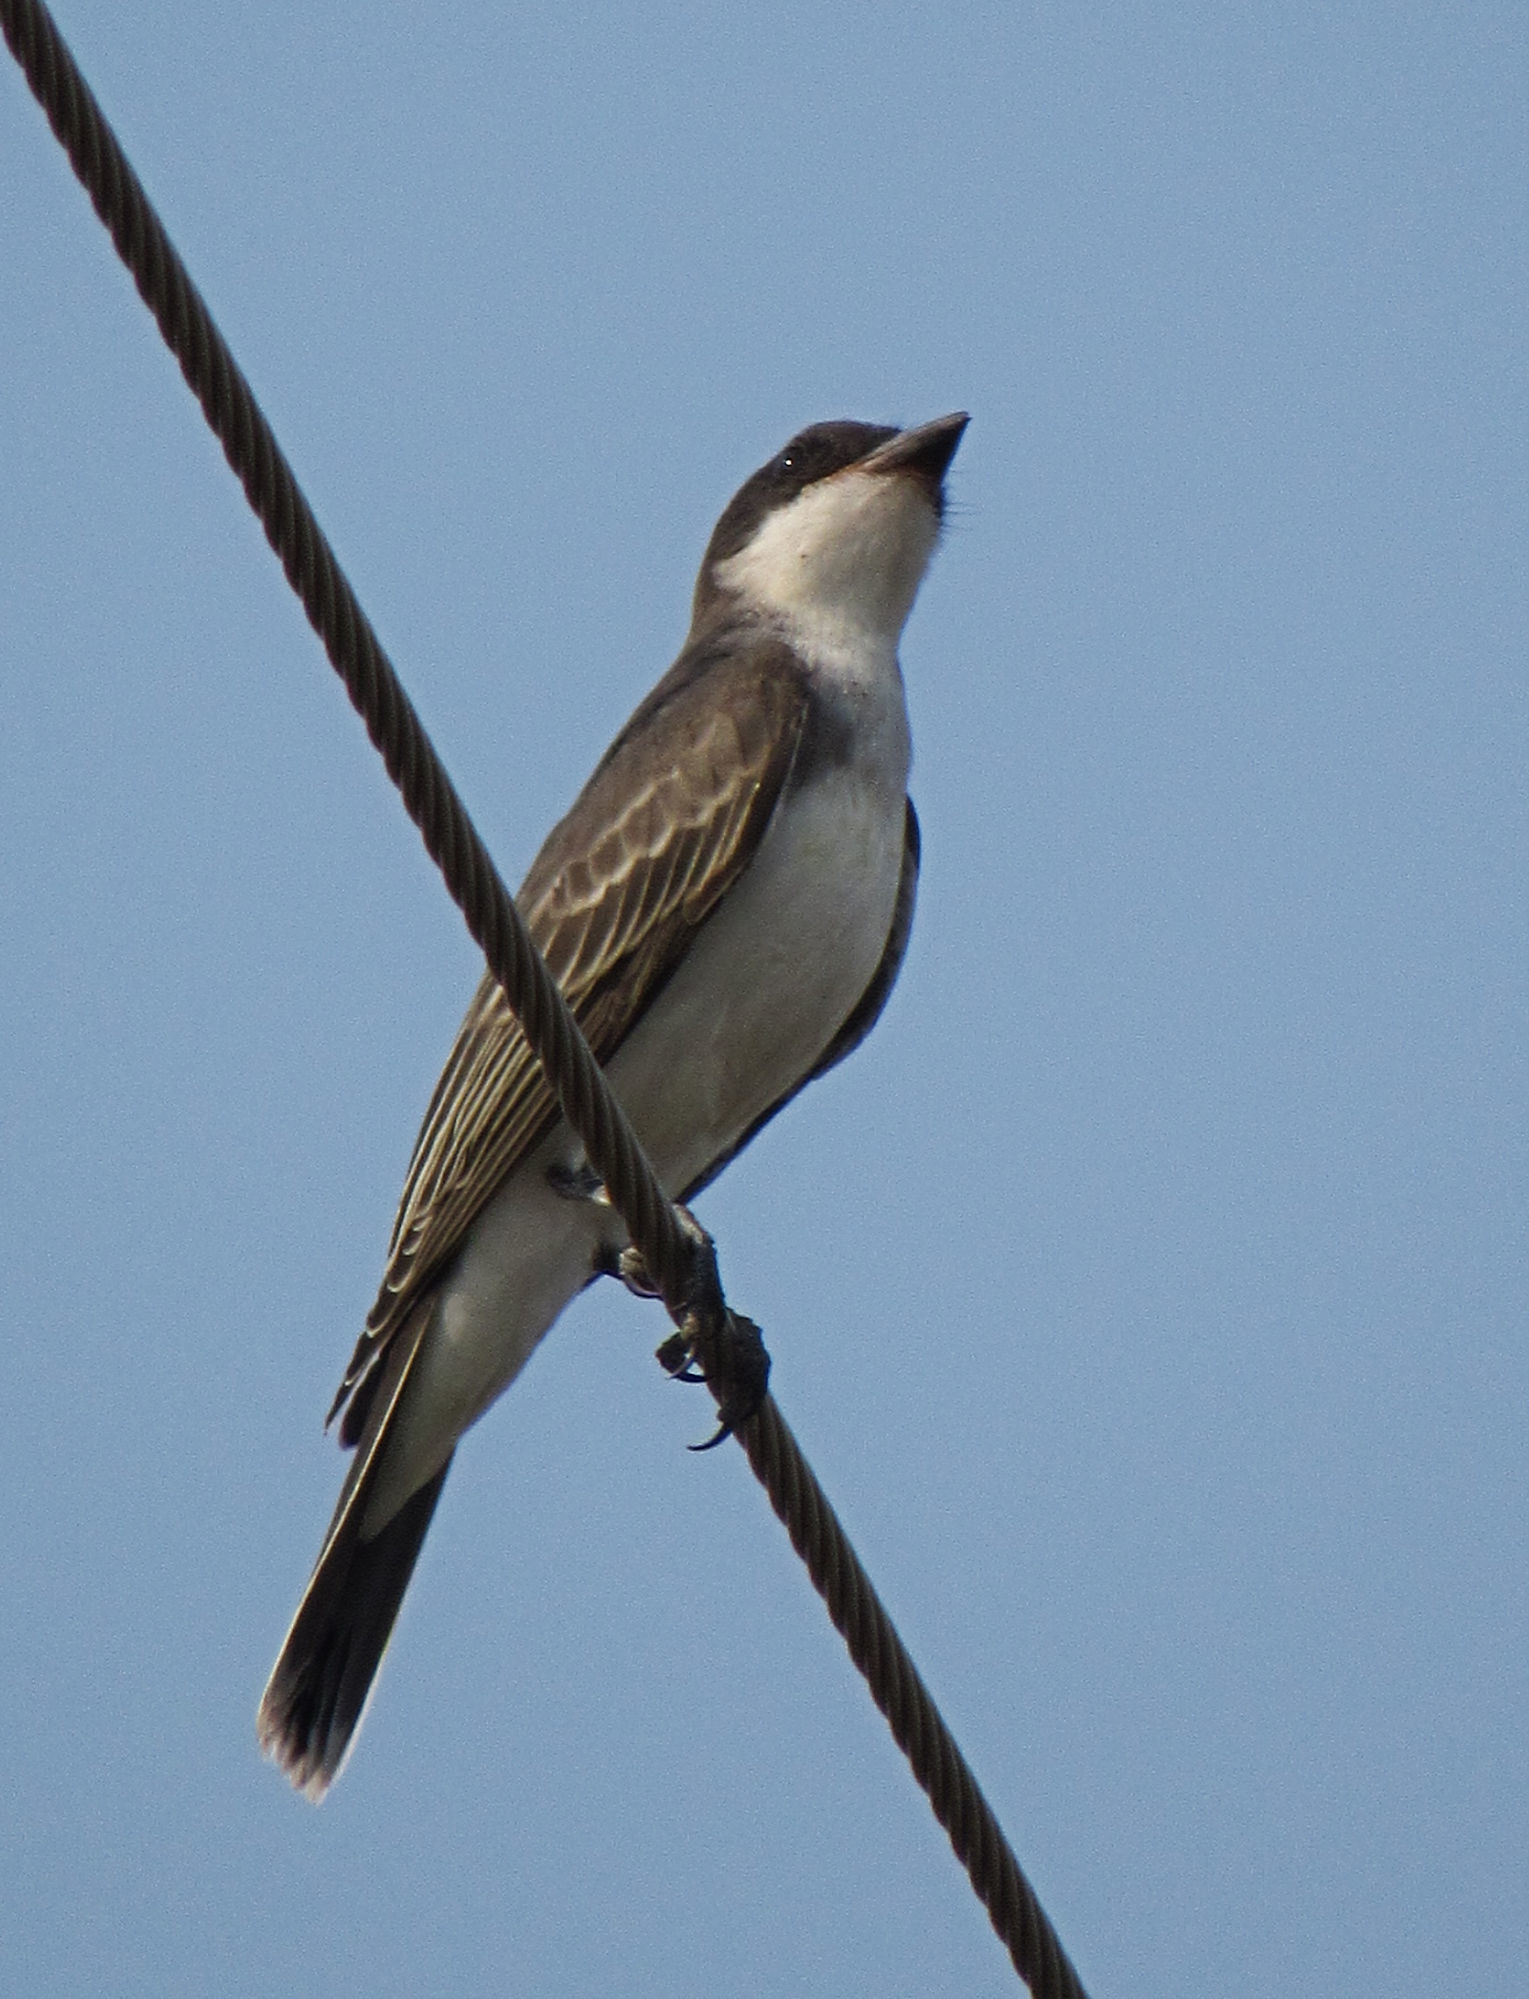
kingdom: Animalia
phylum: Chordata
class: Aves
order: Passeriformes
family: Tyrannidae
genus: Tyrannus
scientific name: Tyrannus tyrannus
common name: Eastern kingbird
